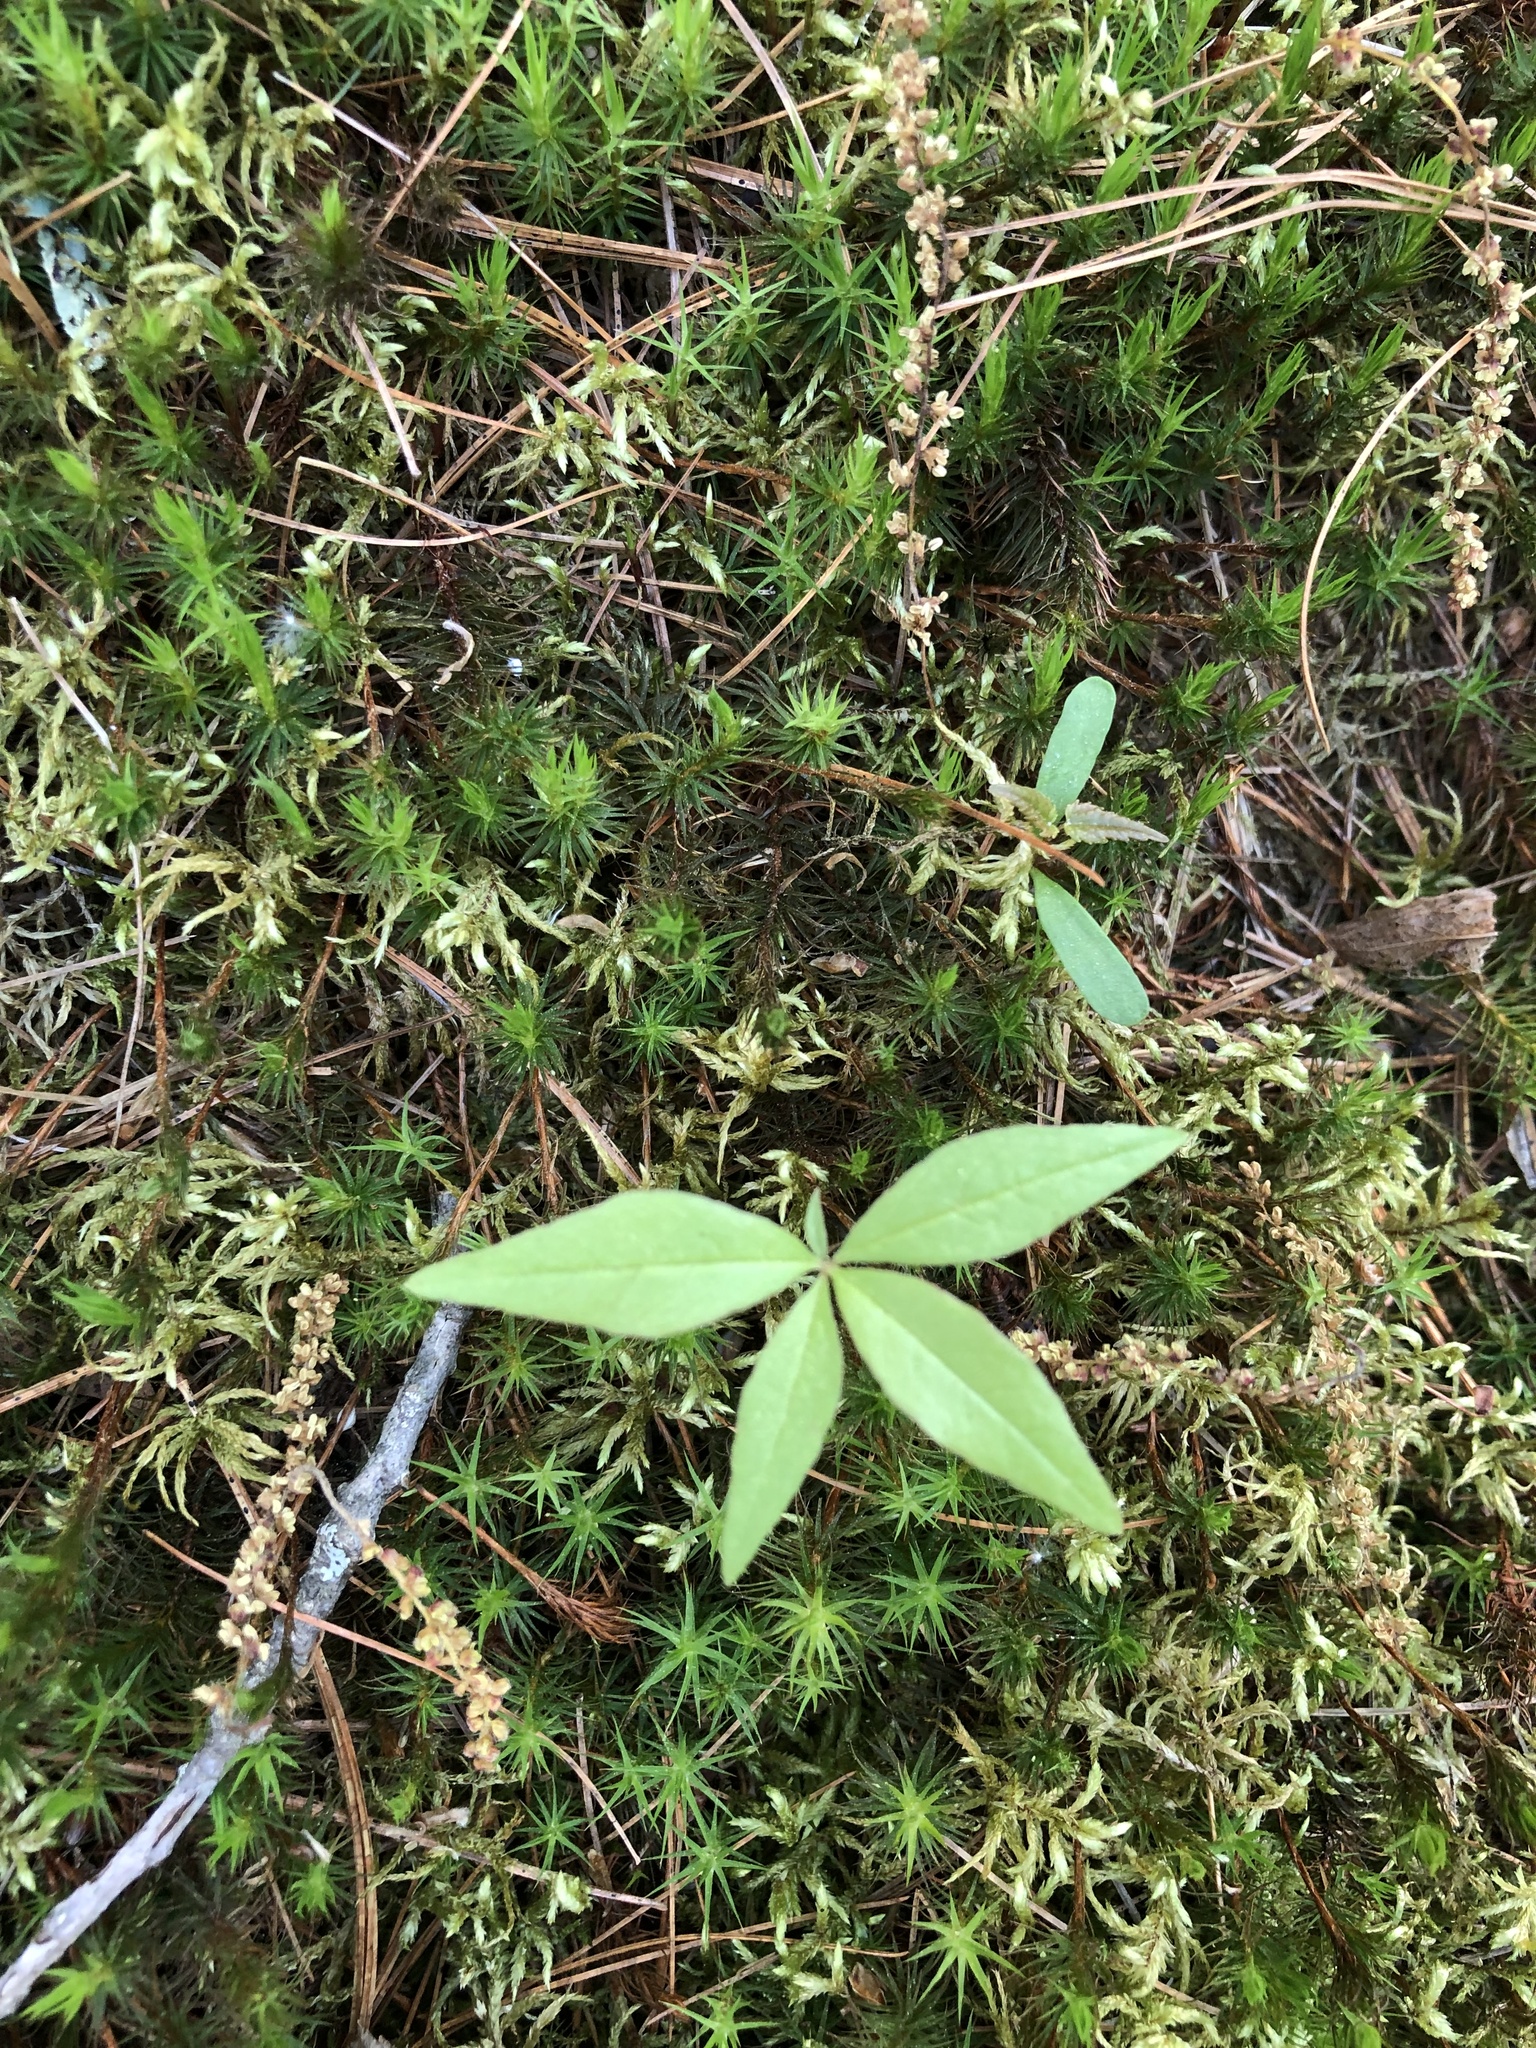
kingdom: Plantae
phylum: Tracheophyta
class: Magnoliopsida
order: Ericales
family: Primulaceae
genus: Lysimachia
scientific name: Lysimachia borealis
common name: American starflower
